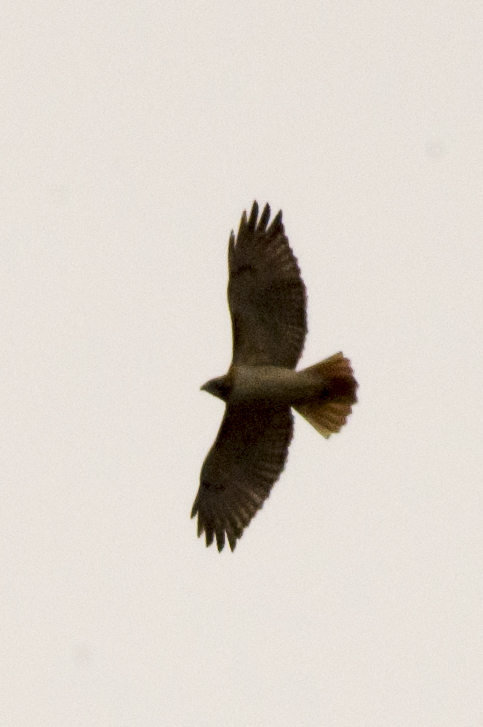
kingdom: Animalia
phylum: Chordata
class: Aves
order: Accipitriformes
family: Accipitridae
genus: Buteo
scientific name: Buteo jamaicensis
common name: Red-tailed hawk
